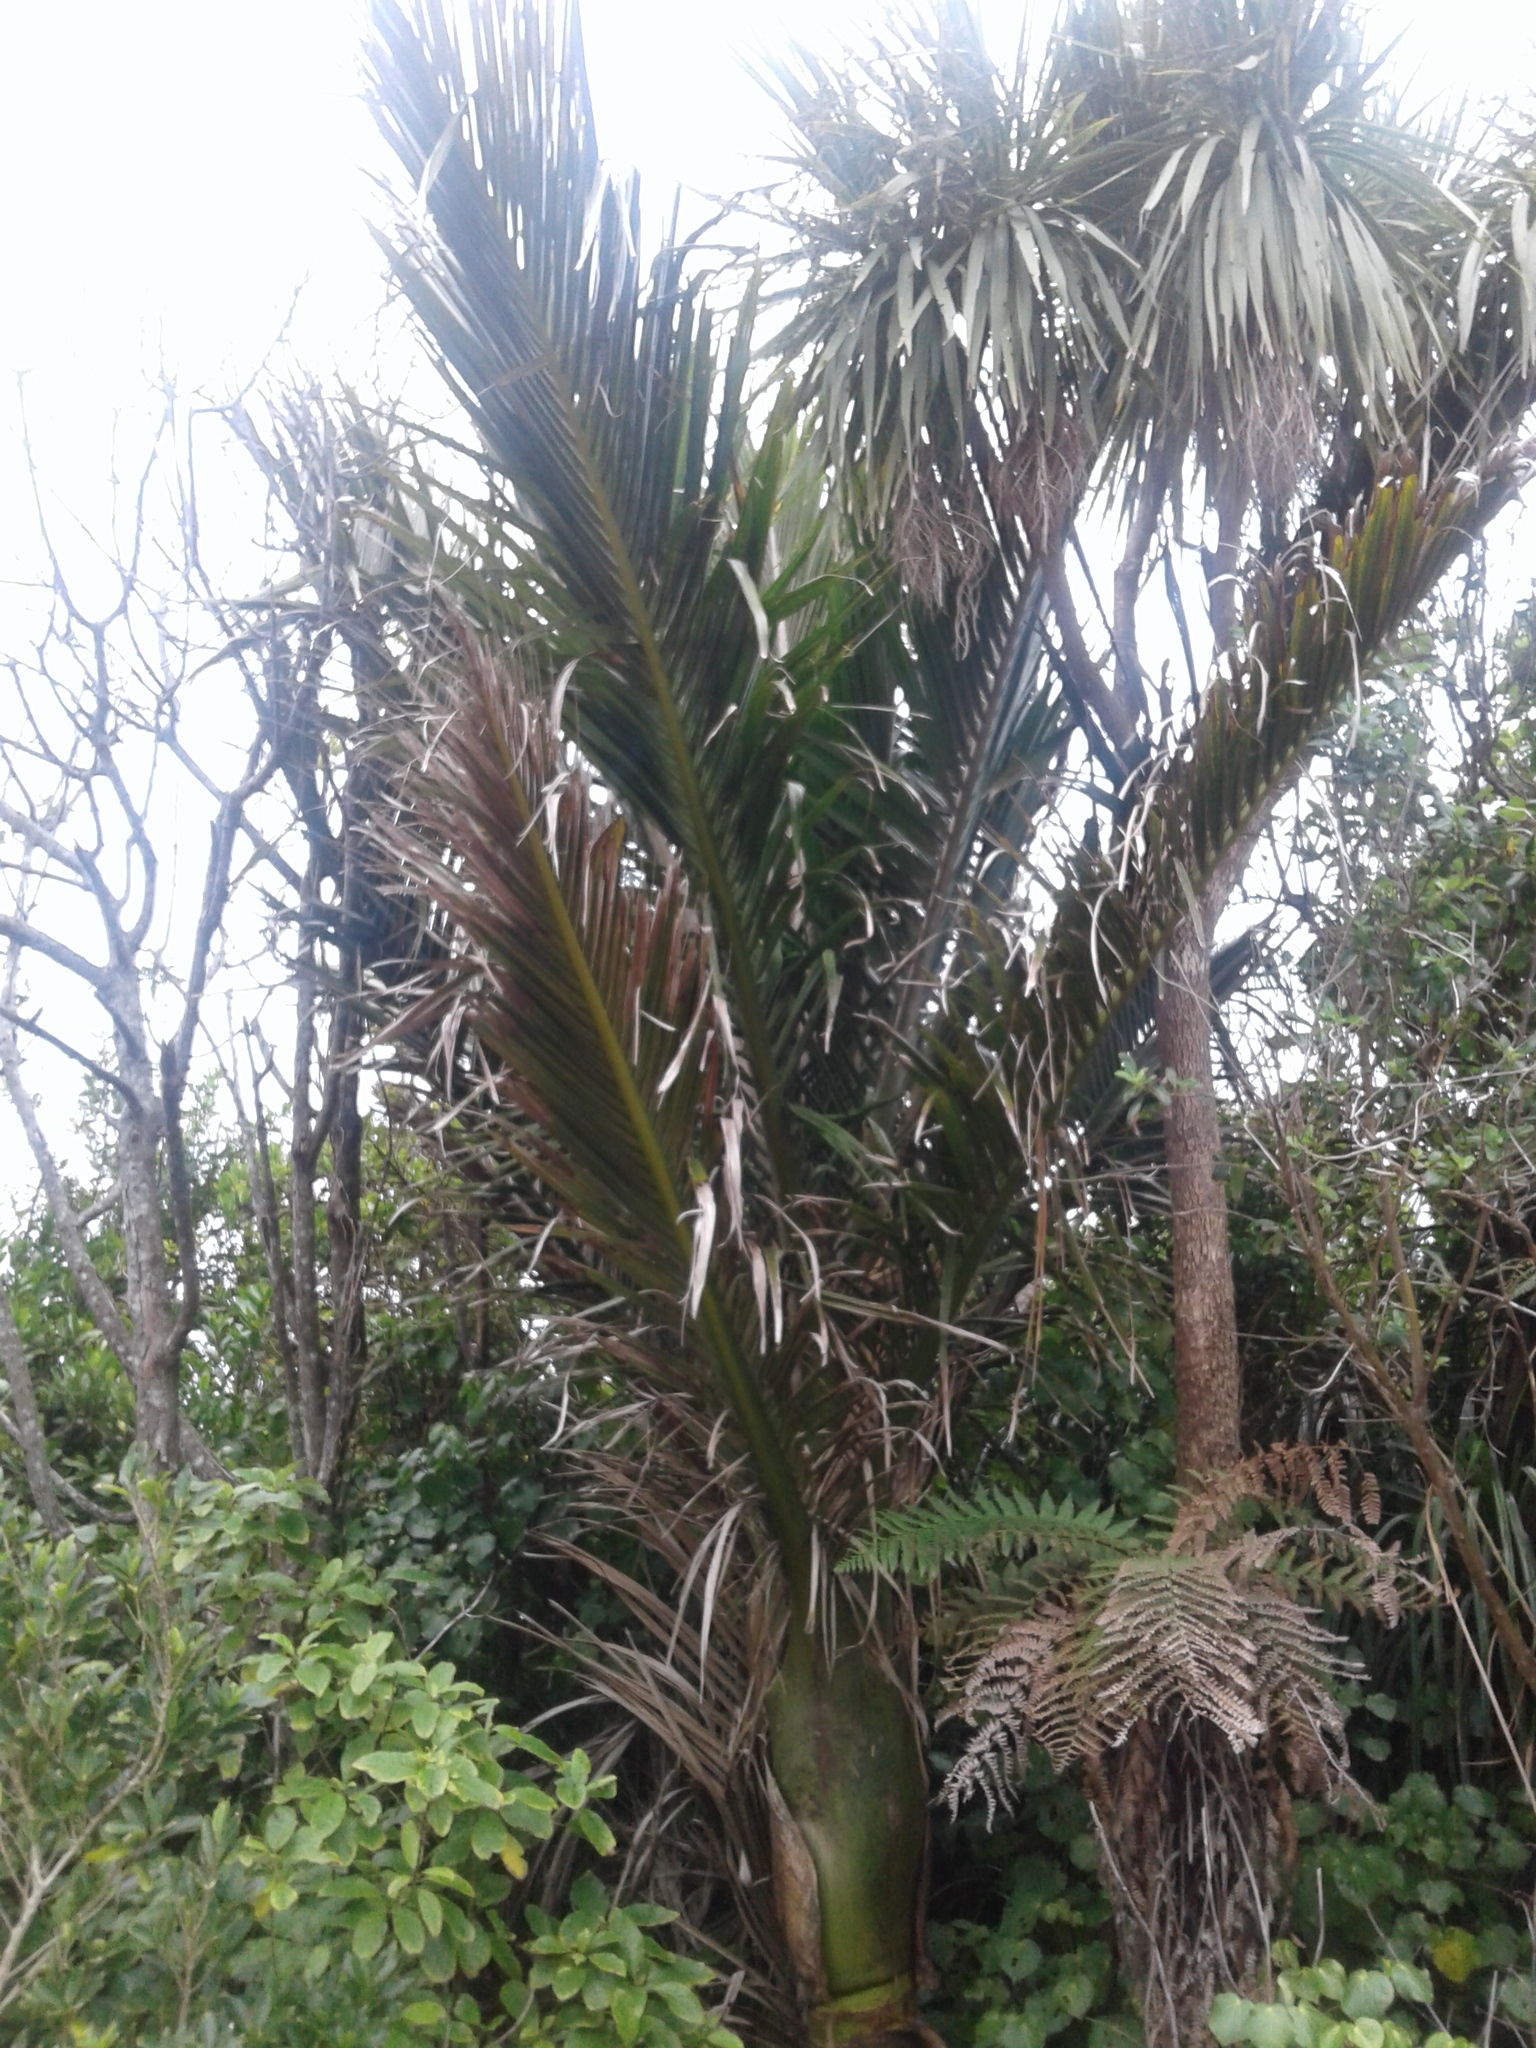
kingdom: Plantae
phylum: Tracheophyta
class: Liliopsida
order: Arecales
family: Arecaceae
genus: Rhopalostylis
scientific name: Rhopalostylis sapida
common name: Feather-duster palm
